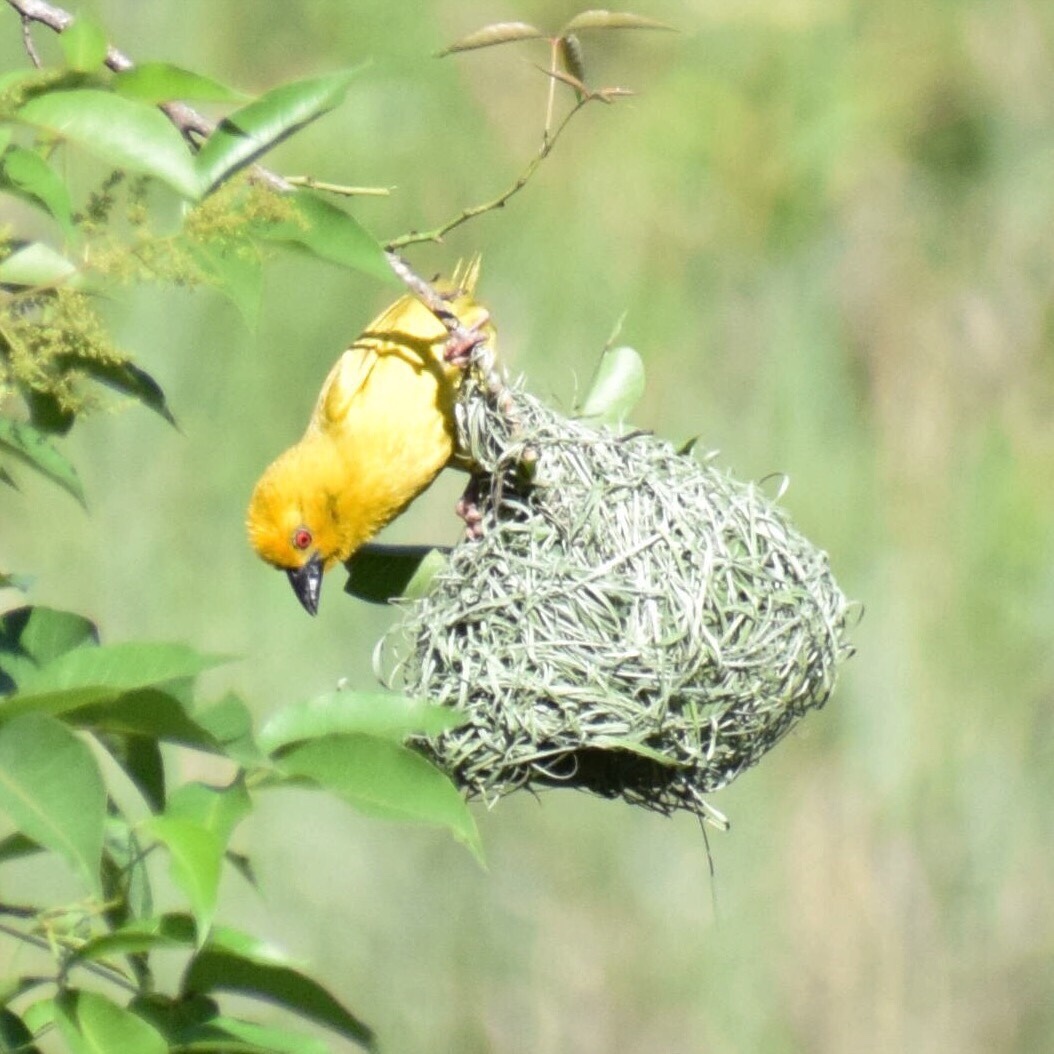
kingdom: Animalia
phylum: Chordata
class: Aves
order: Passeriformes
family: Ploceidae
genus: Ploceus
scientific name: Ploceus subaureus
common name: Yellow weaver
